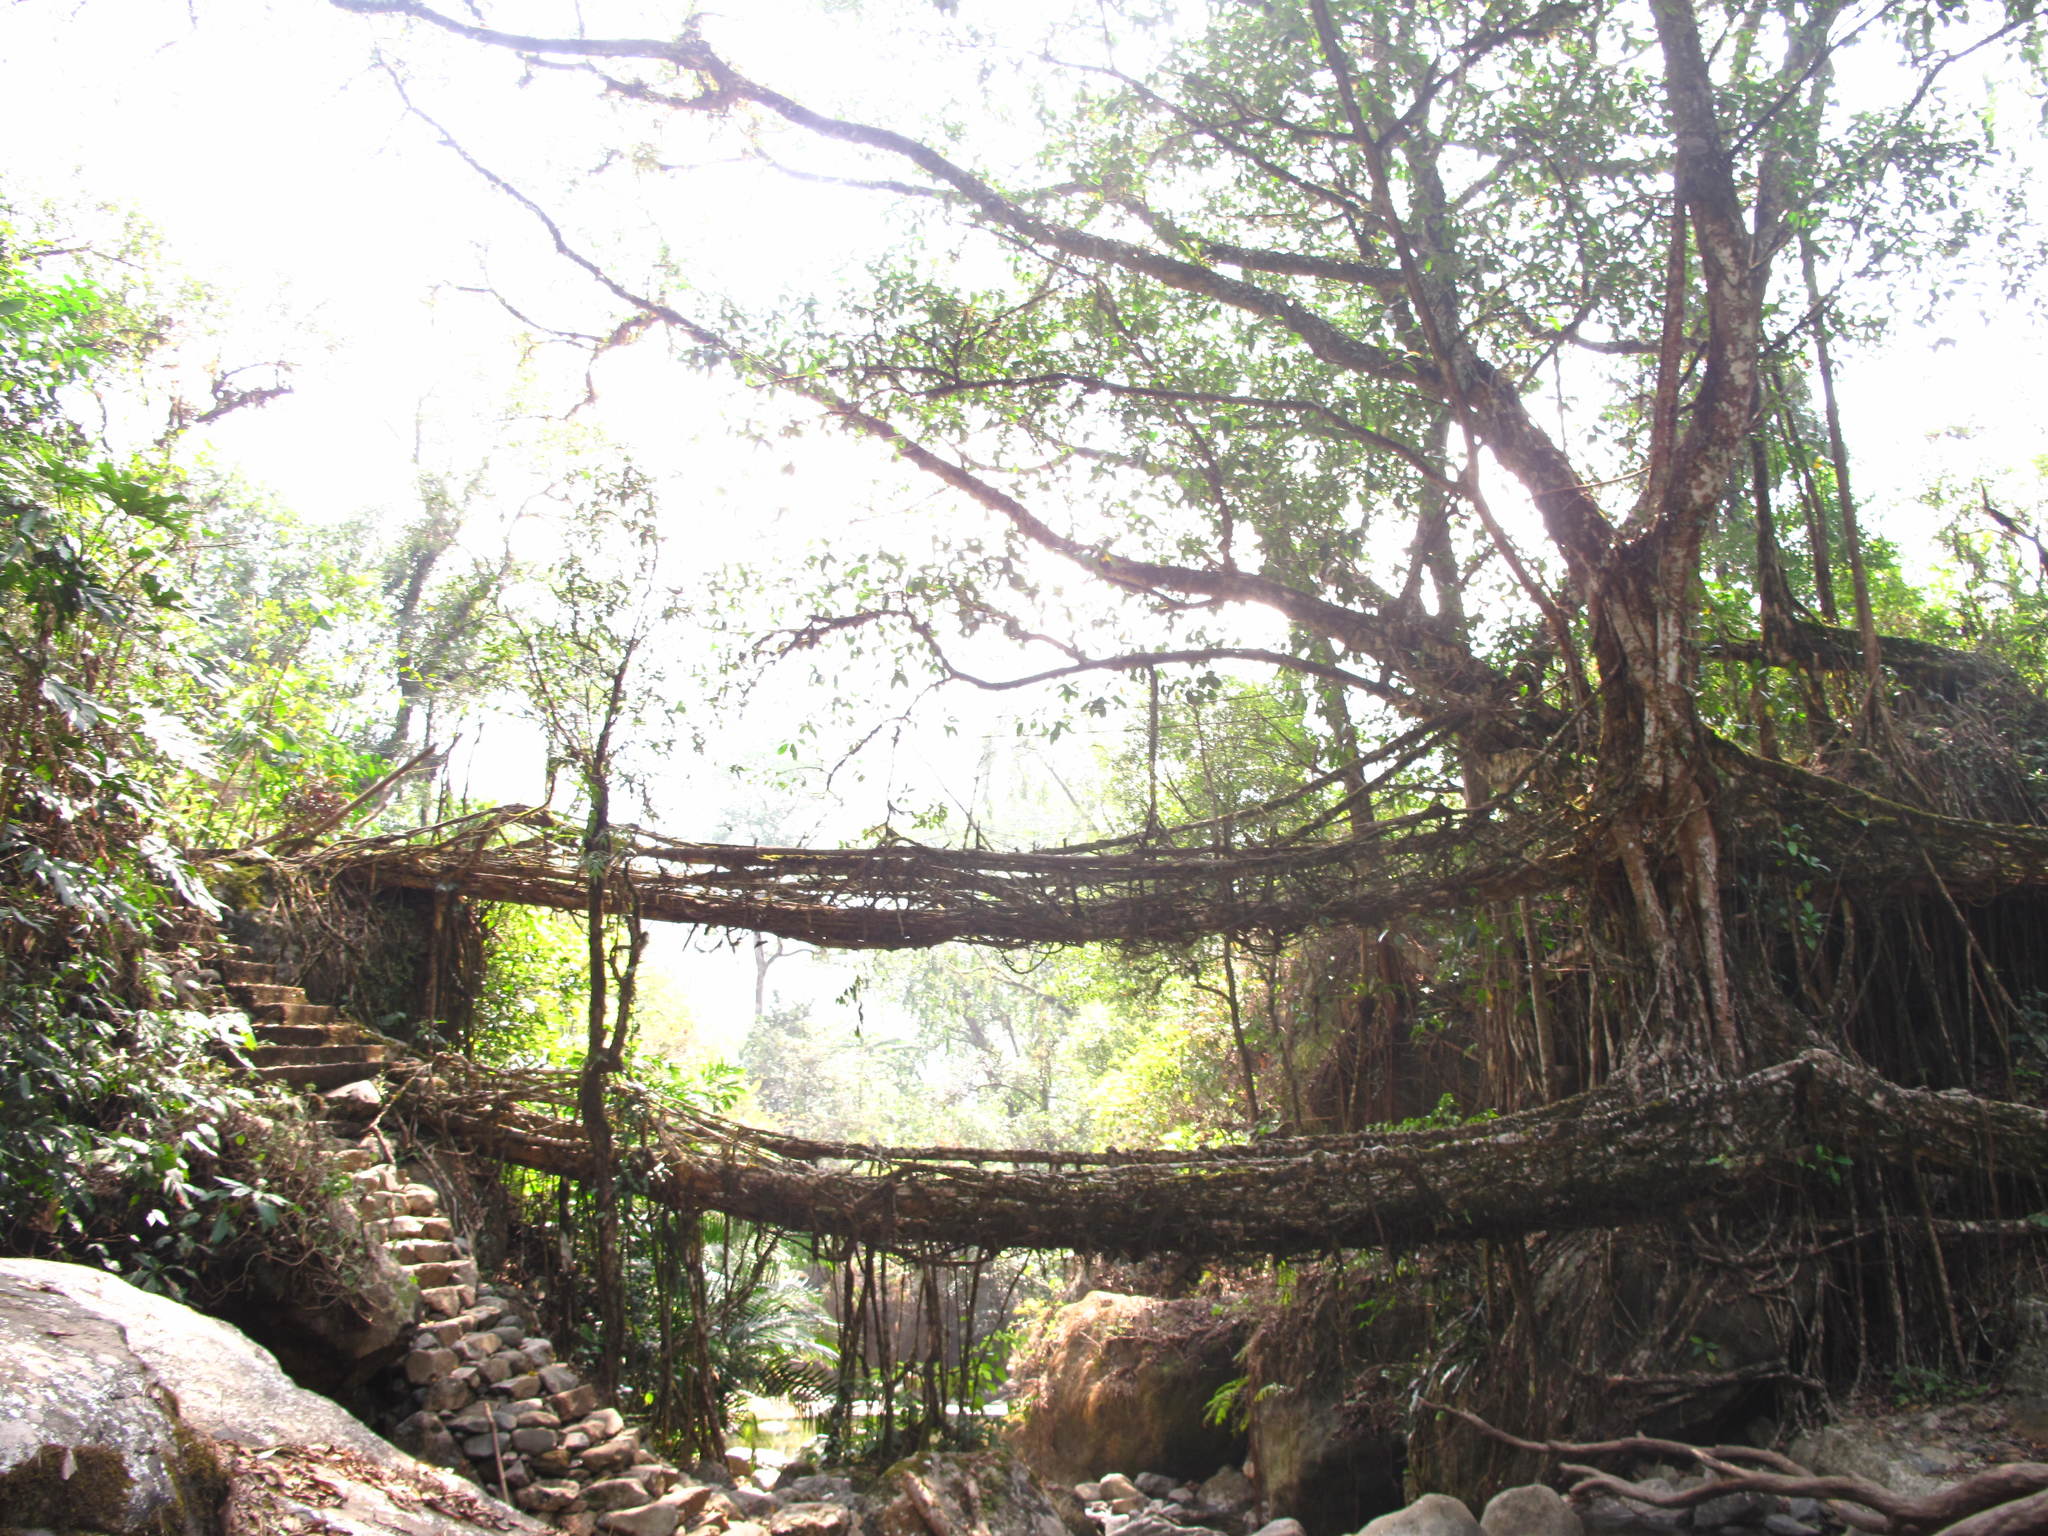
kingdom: Plantae
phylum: Tracheophyta
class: Magnoliopsida
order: Rosales
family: Moraceae
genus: Ficus
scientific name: Ficus elastica
